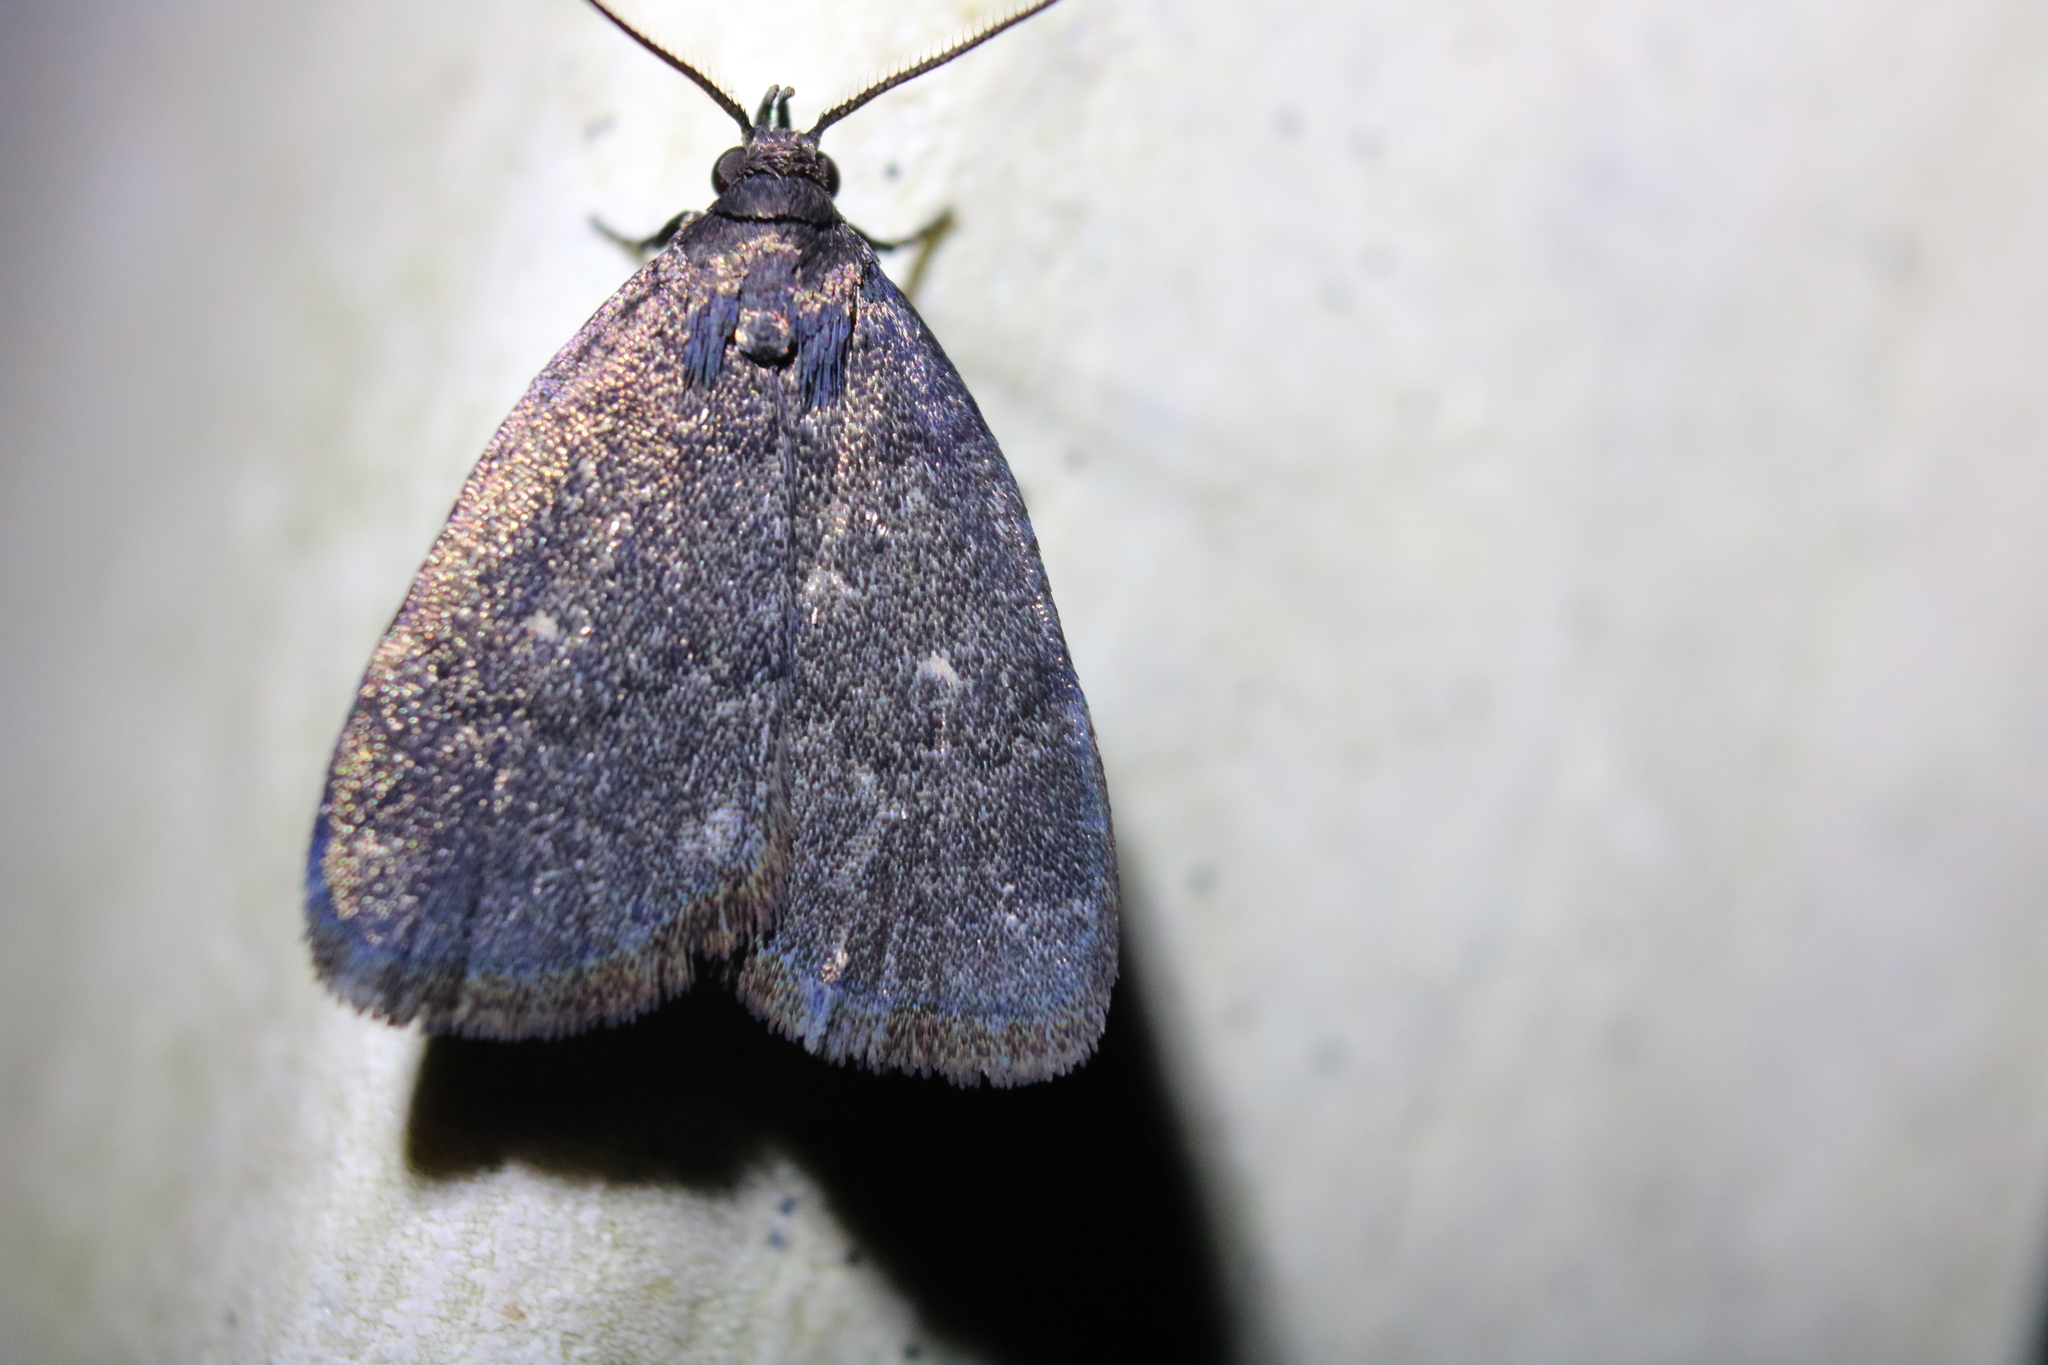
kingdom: Animalia
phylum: Arthropoda
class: Insecta
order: Lepidoptera
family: Erebidae
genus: Idia
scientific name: Idia rotundalis
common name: Rotund idia moth
